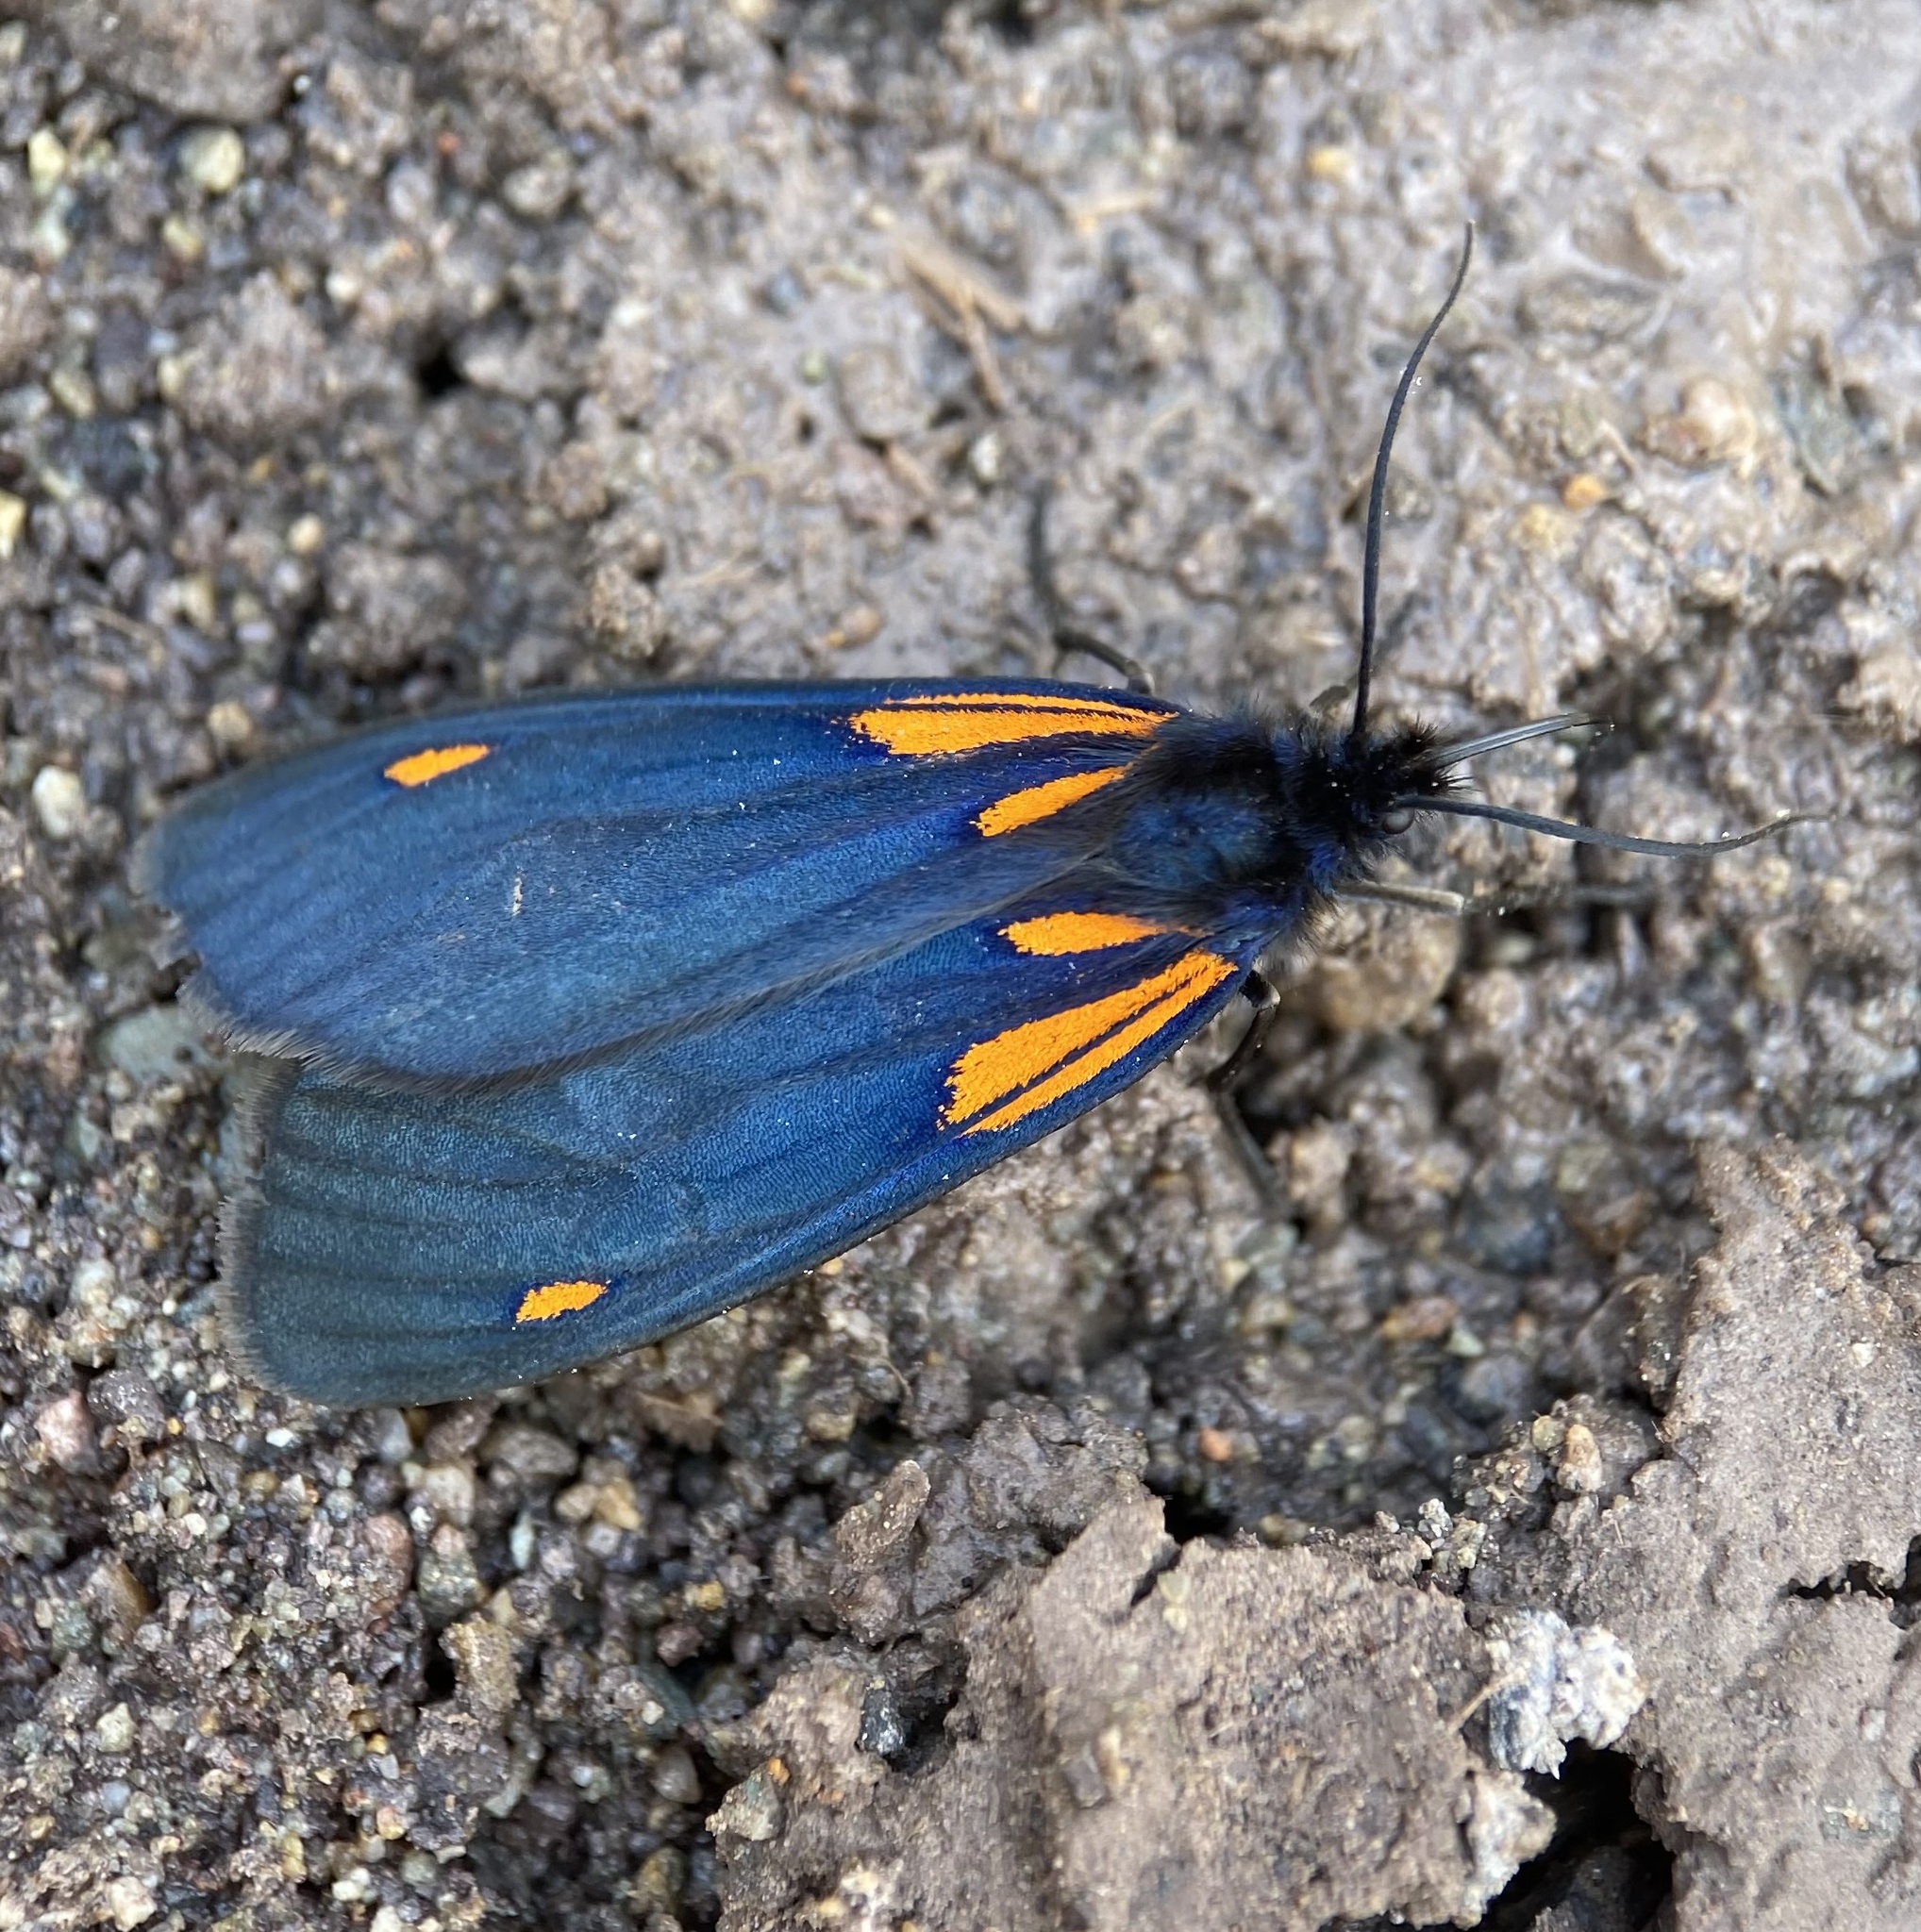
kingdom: Animalia
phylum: Arthropoda
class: Insecta
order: Lepidoptera
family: Notodontidae
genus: Scea
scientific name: Scea
